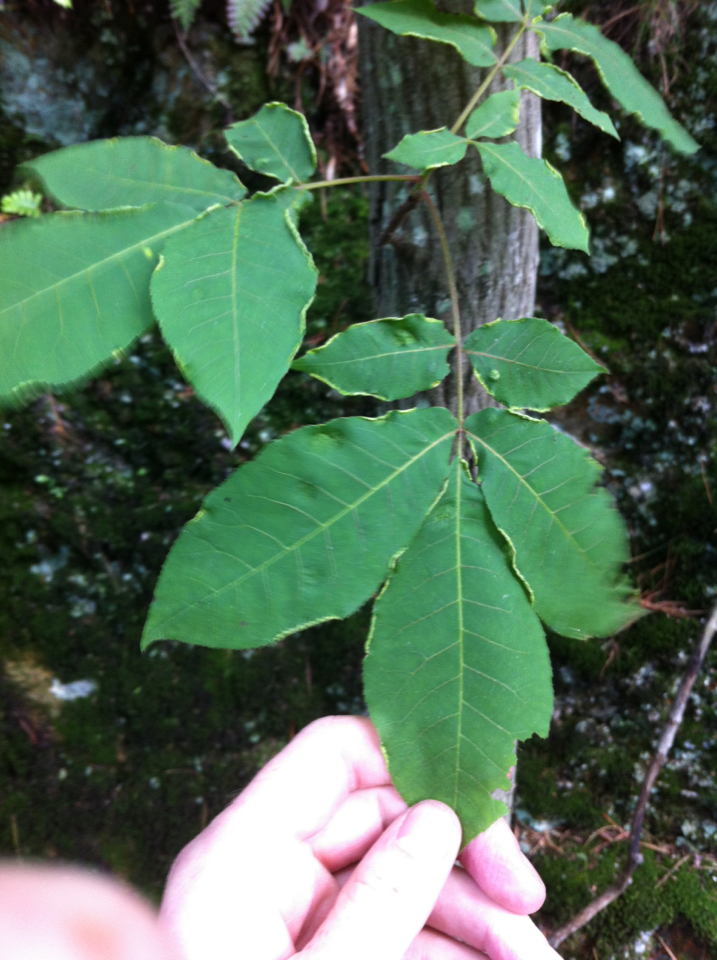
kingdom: Plantae
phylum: Tracheophyta
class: Magnoliopsida
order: Fagales
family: Juglandaceae
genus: Carya
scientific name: Carya
